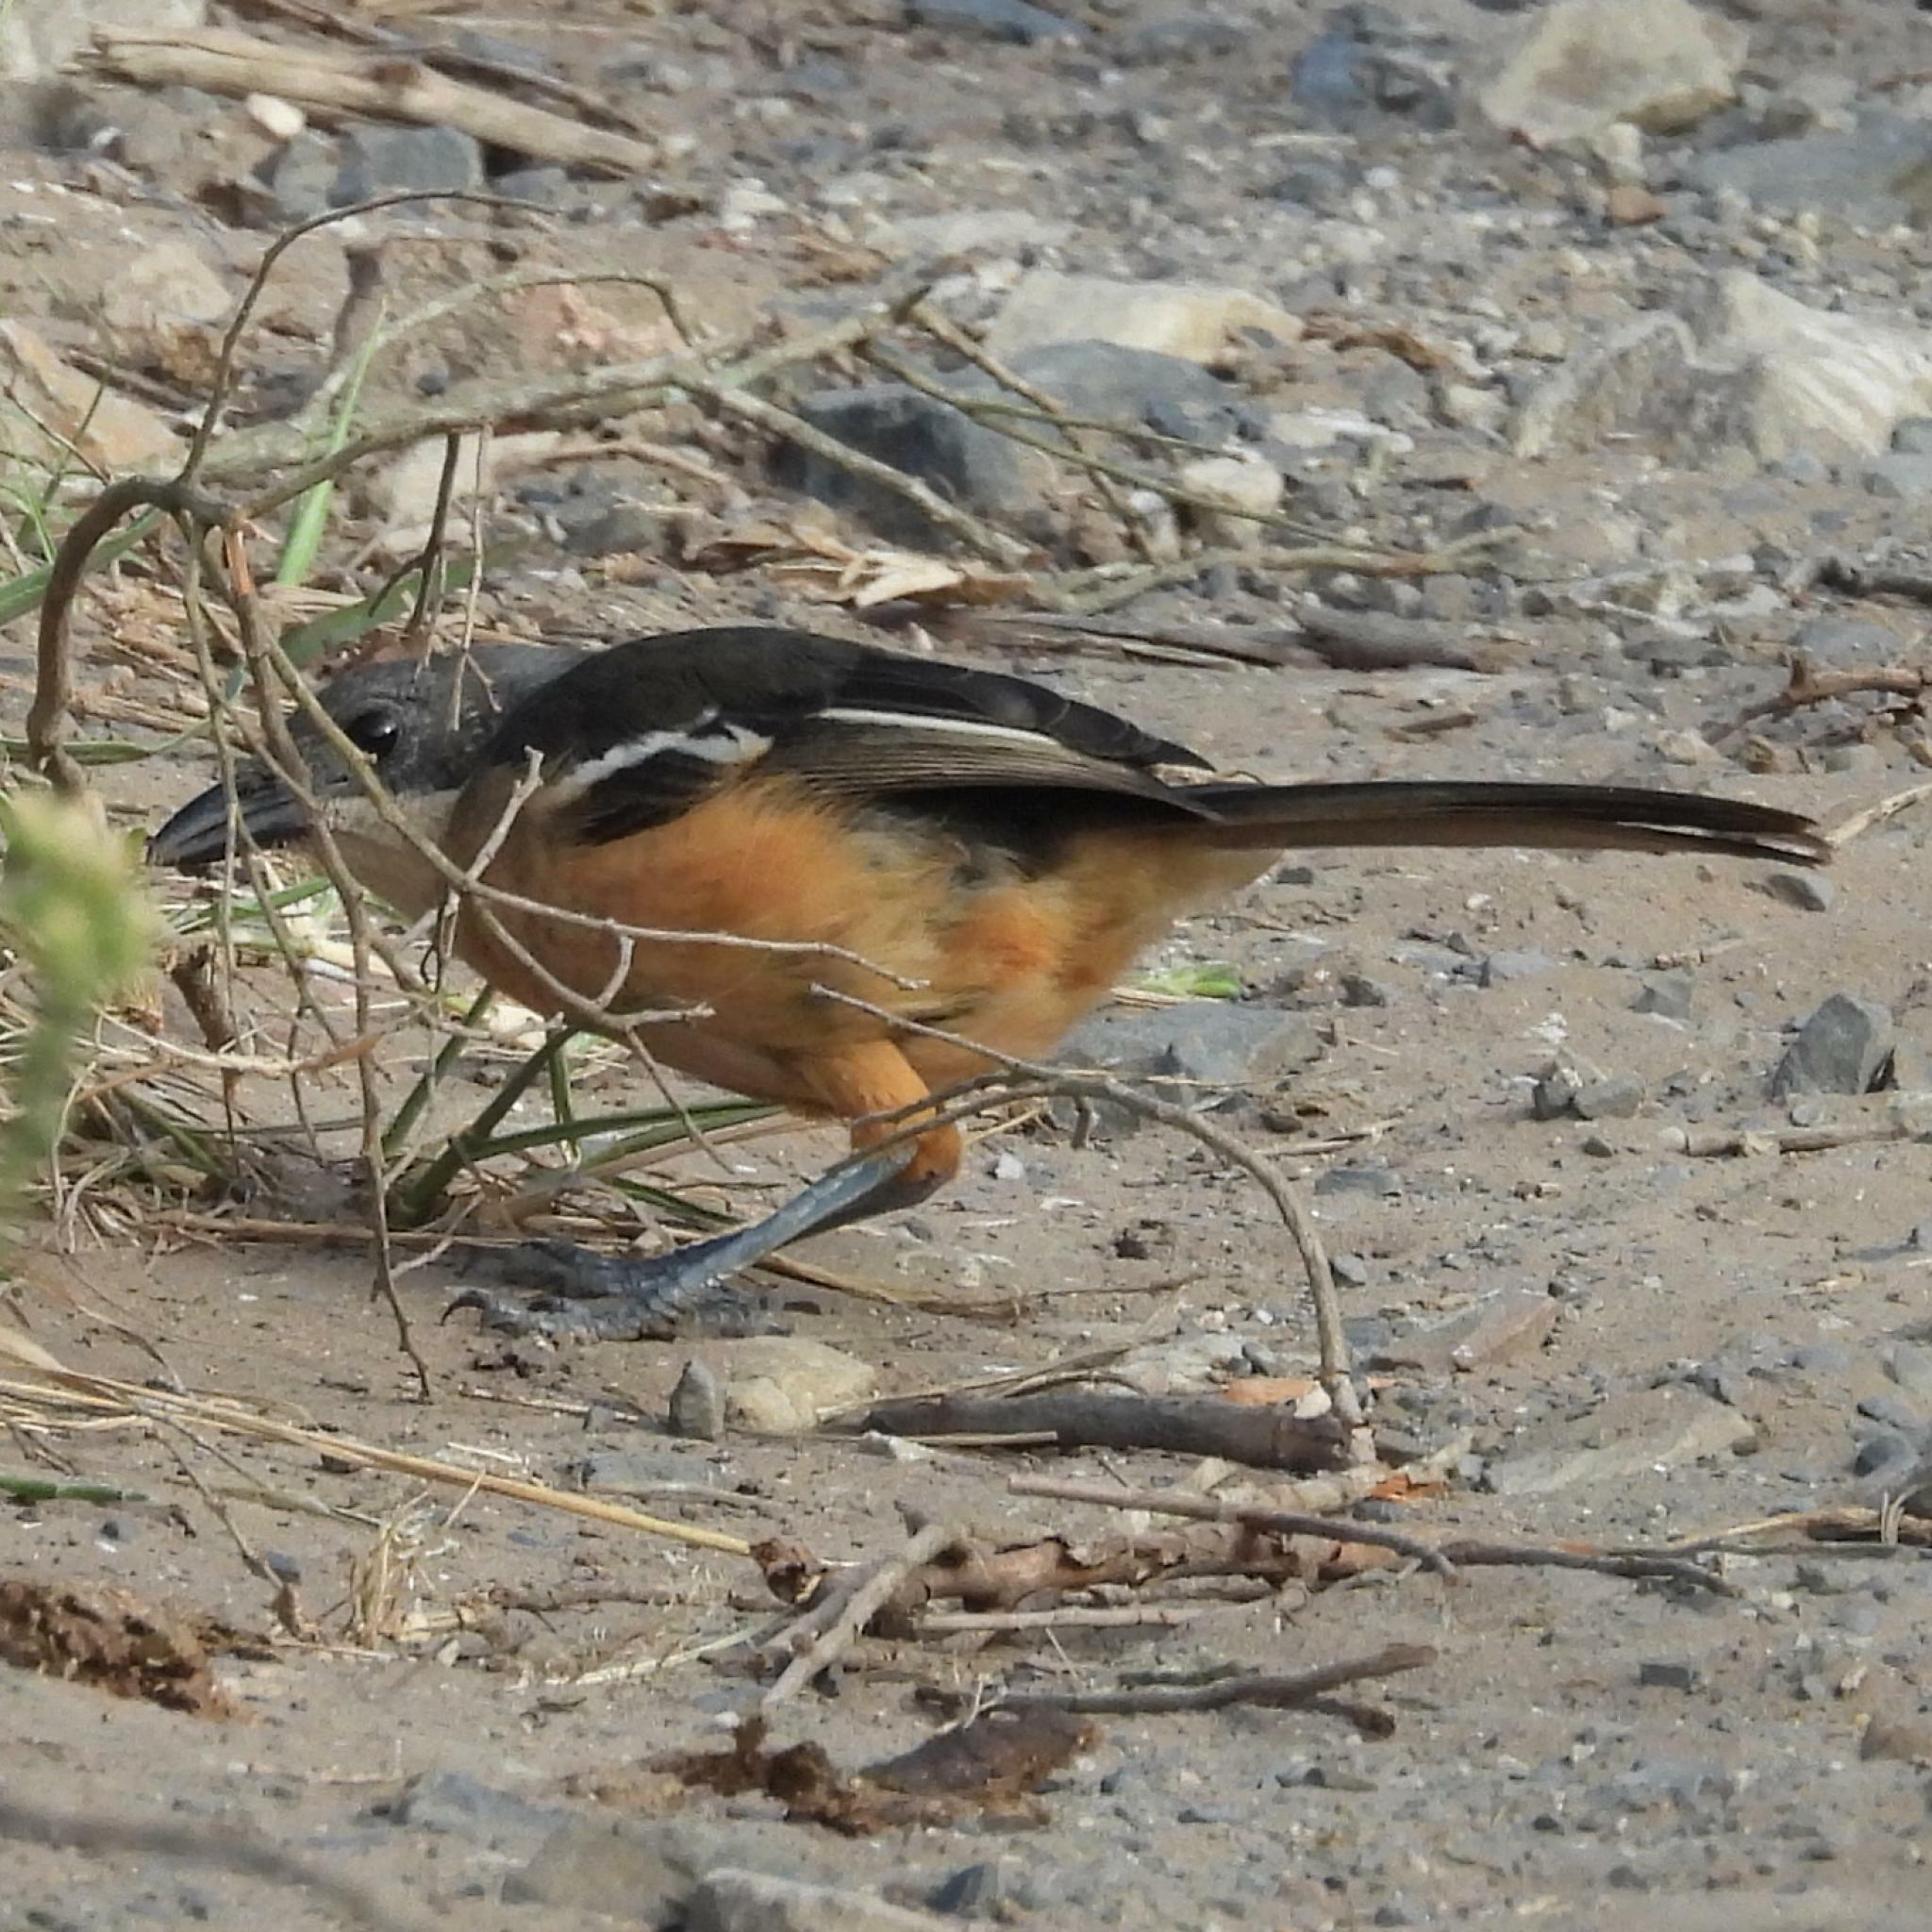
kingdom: Animalia
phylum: Chordata
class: Aves
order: Passeriformes
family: Malaconotidae
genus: Laniarius
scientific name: Laniarius ferrugineus
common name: Southern boubou
